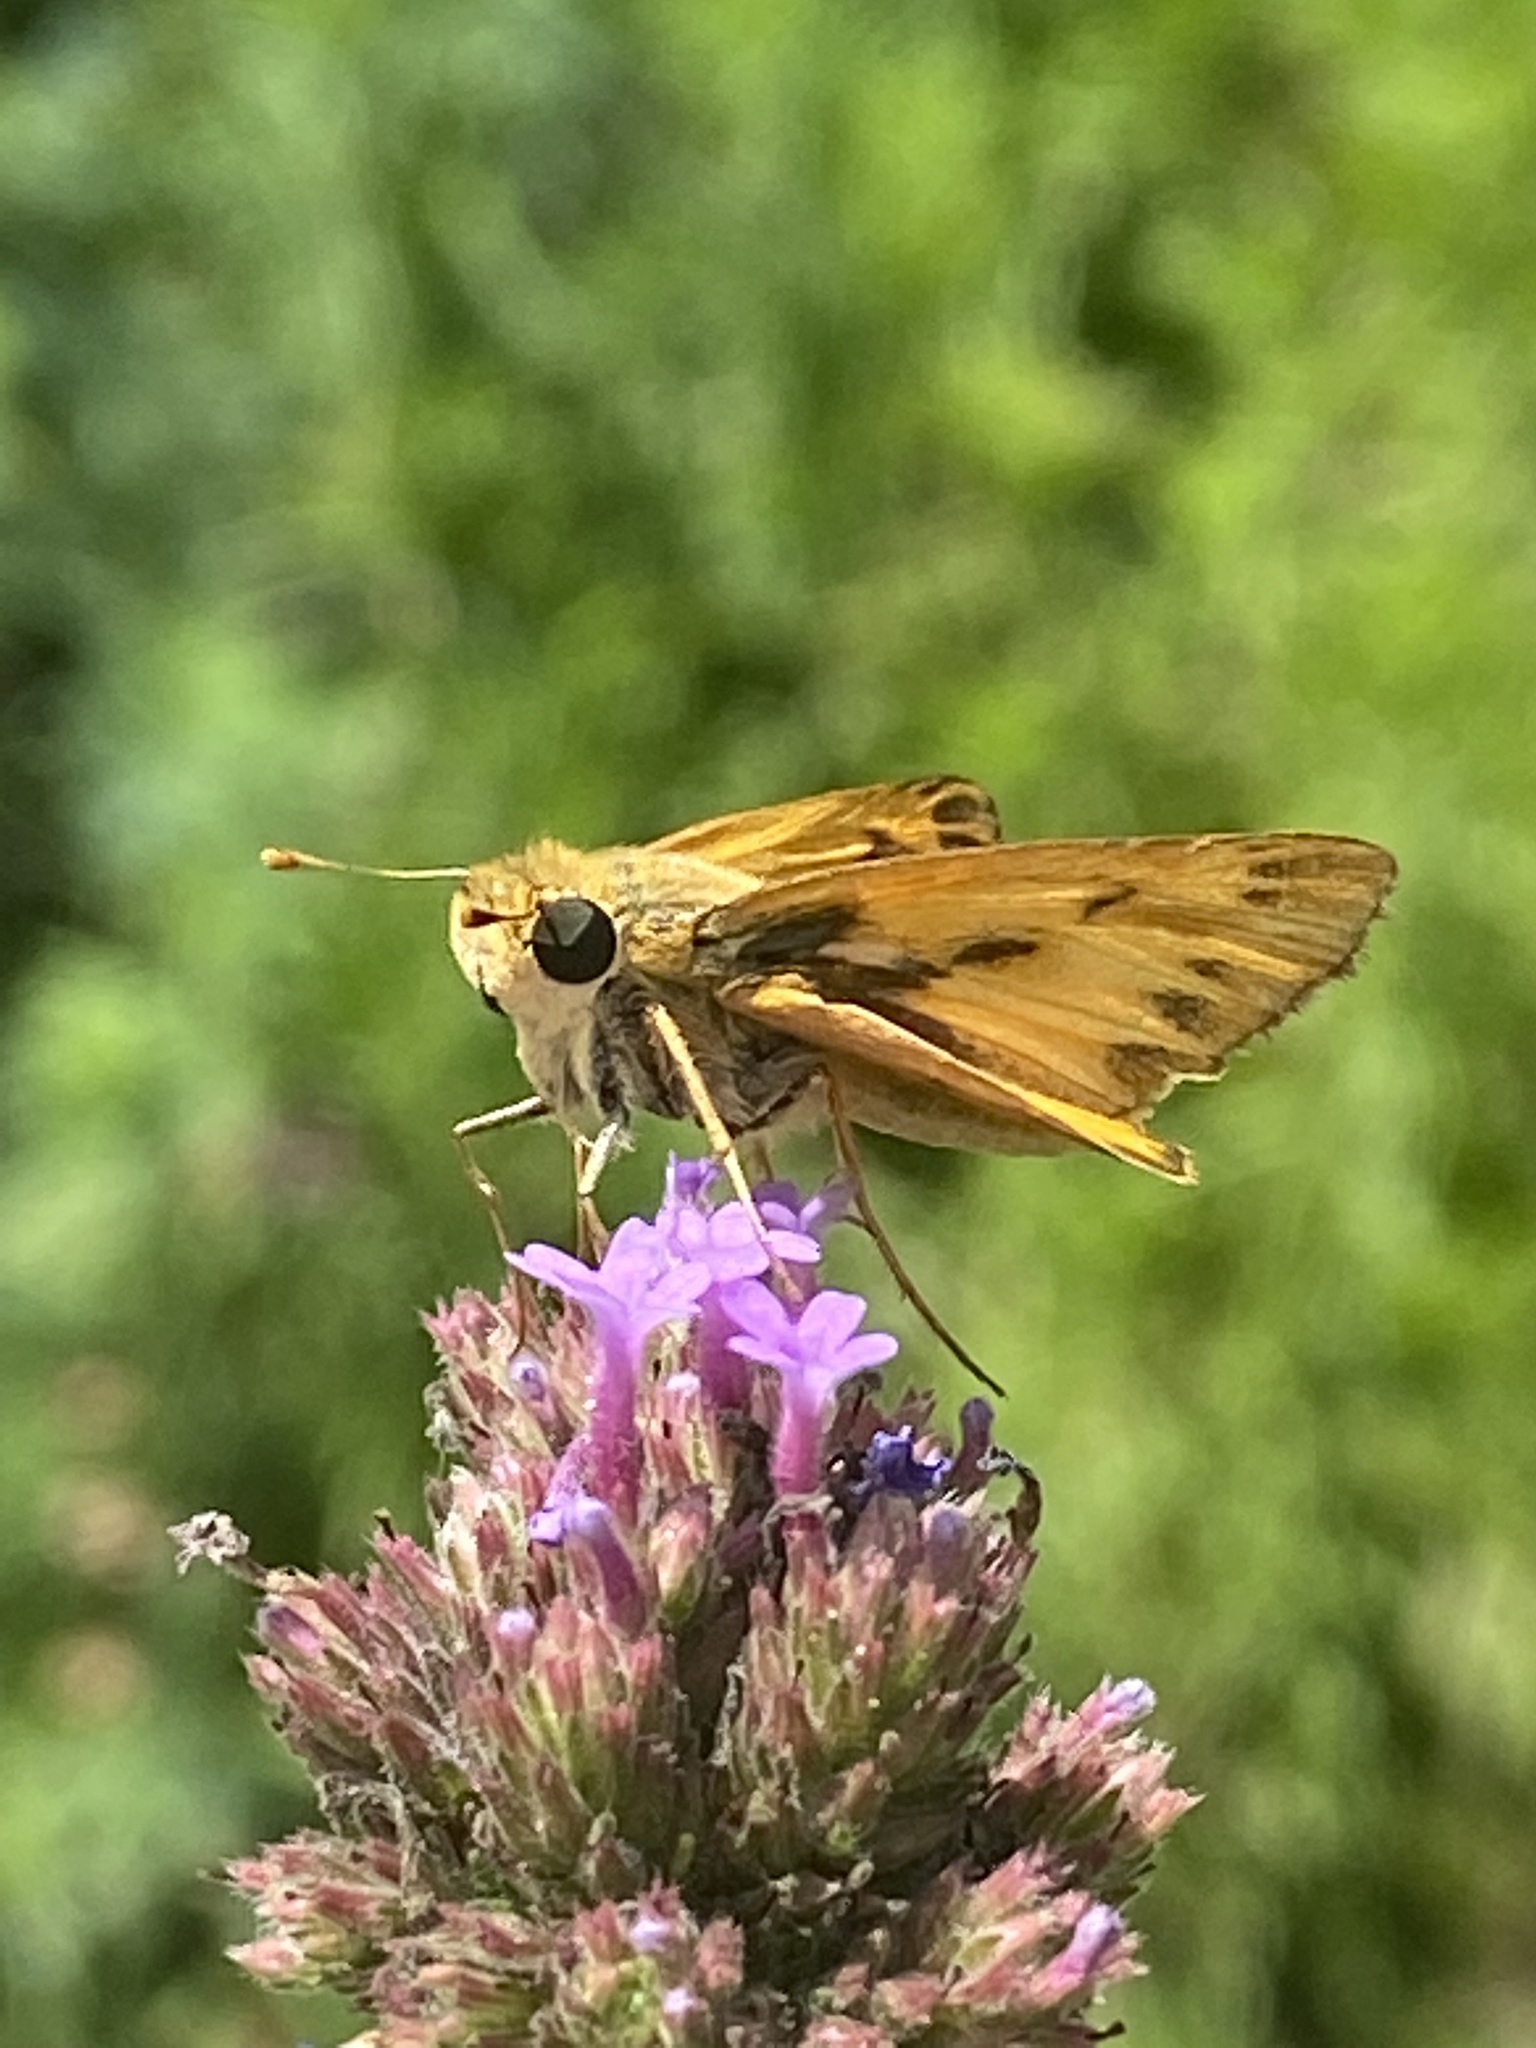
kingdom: Animalia
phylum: Arthropoda
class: Insecta
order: Lepidoptera
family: Hesperiidae
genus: Hylephila
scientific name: Hylephila phyleus
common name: Fiery skipper
